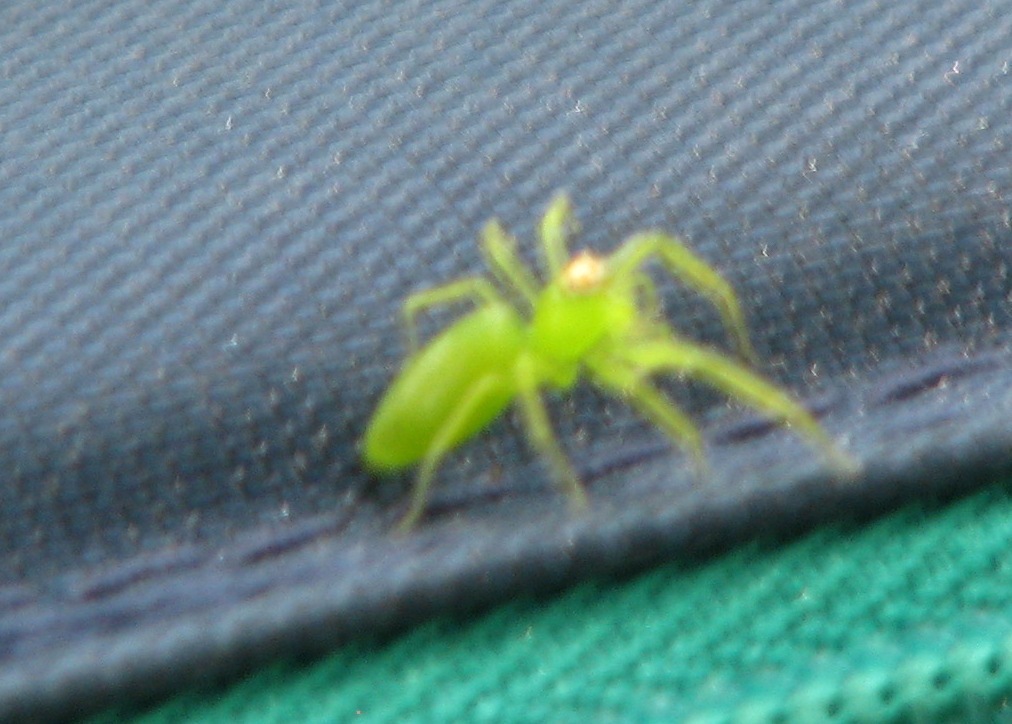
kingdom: Animalia
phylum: Arthropoda
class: Arachnida
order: Araneae
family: Salticidae
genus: Lyssomanes
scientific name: Lyssomanes viridis
